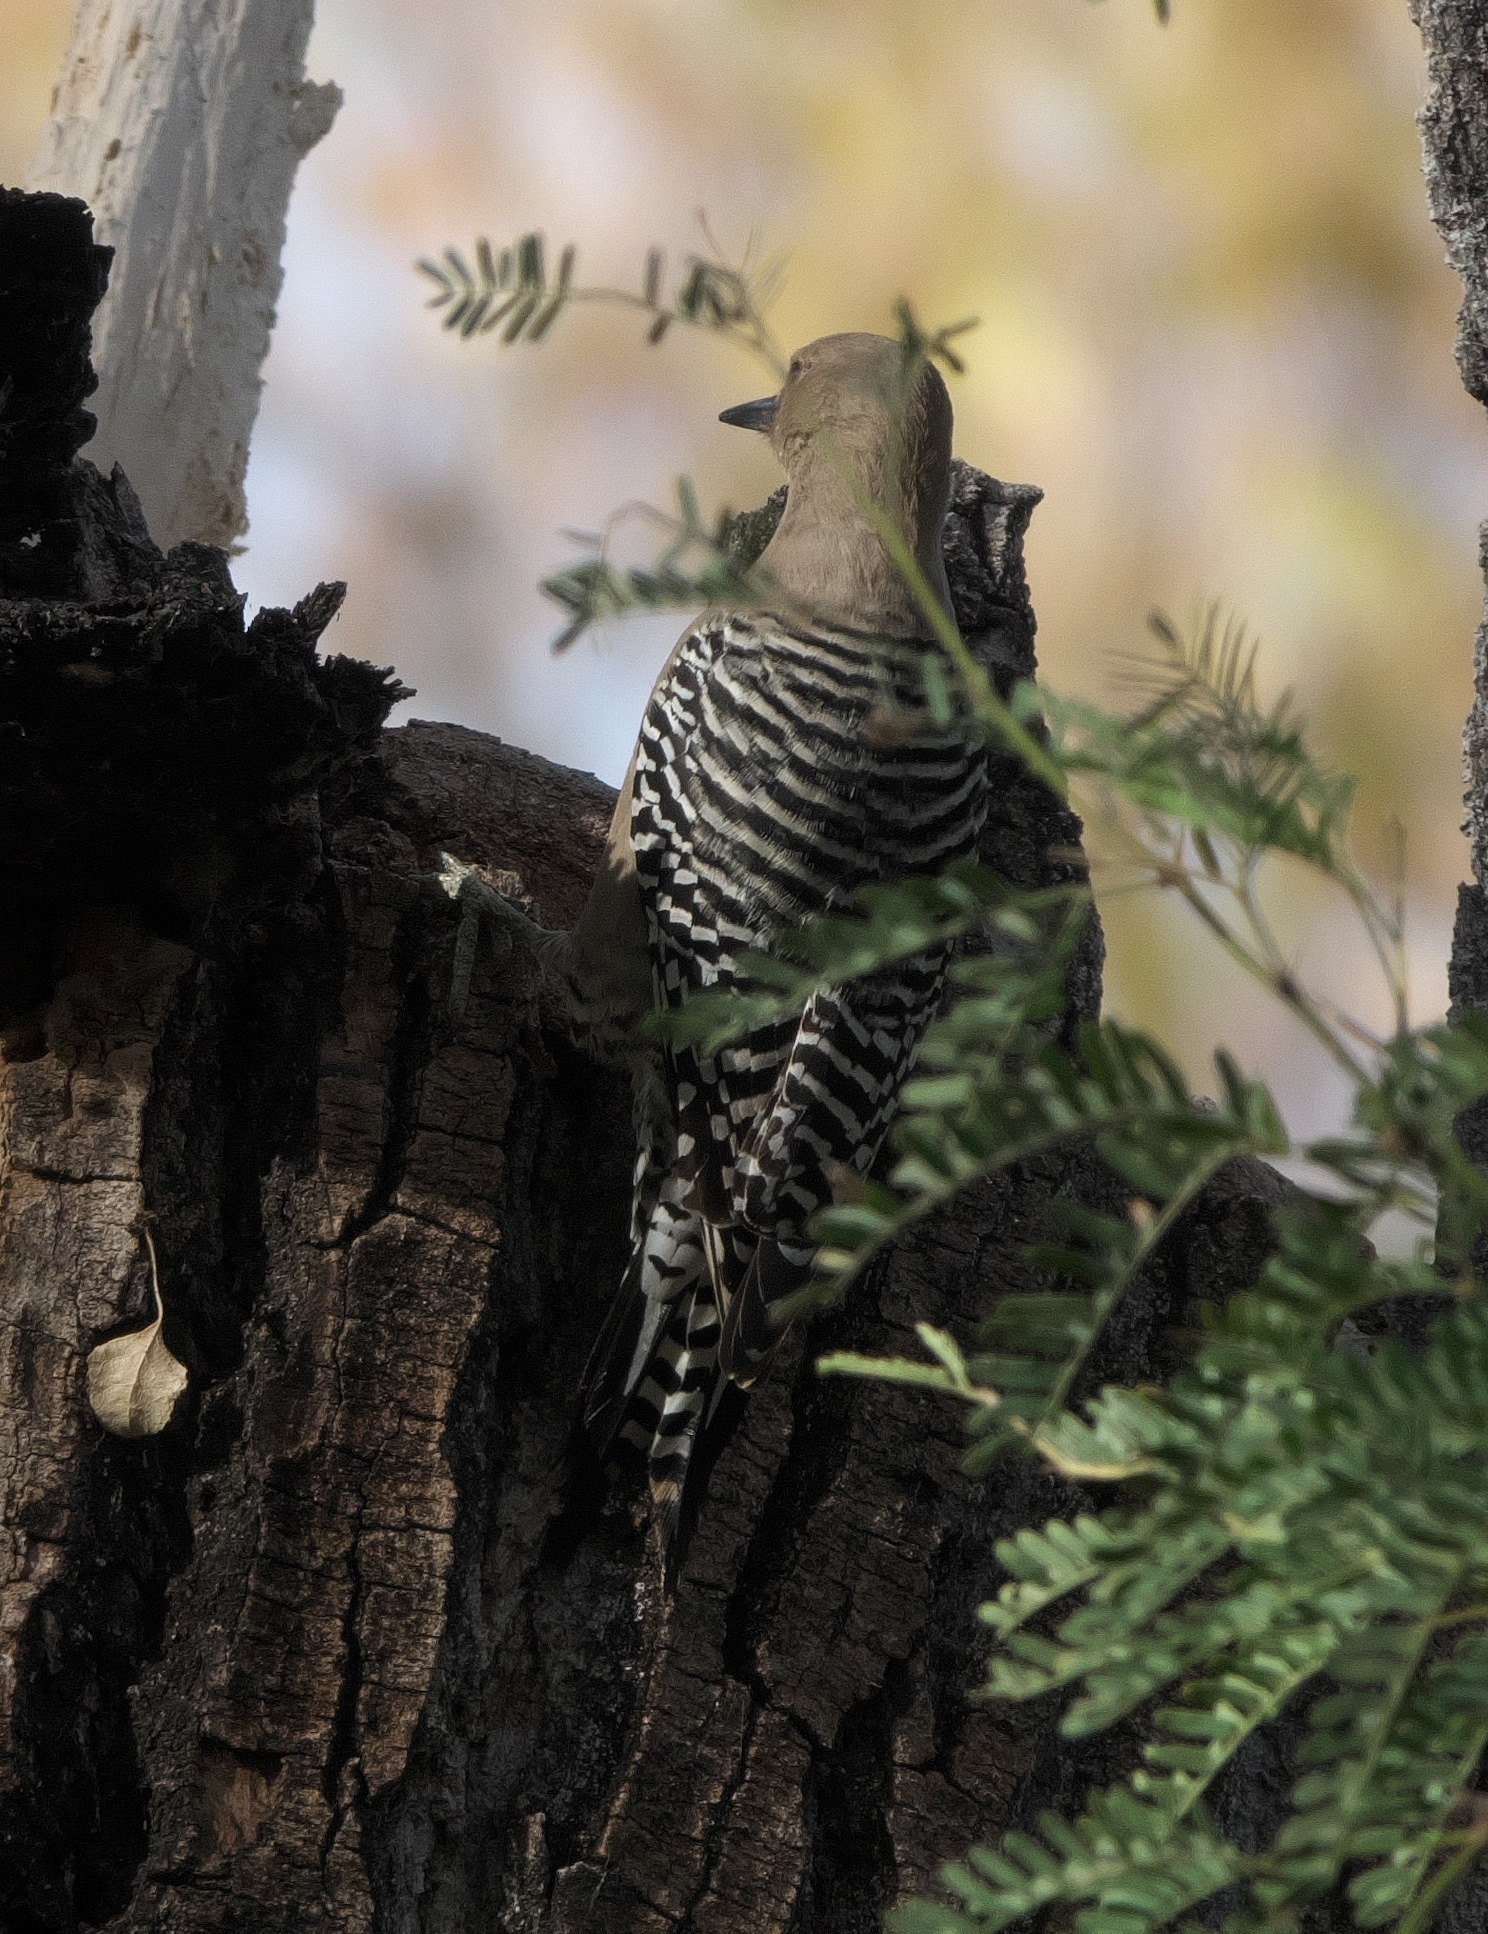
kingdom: Animalia
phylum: Chordata
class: Aves
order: Piciformes
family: Picidae
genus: Melanerpes
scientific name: Melanerpes uropygialis
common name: Gila woodpecker
